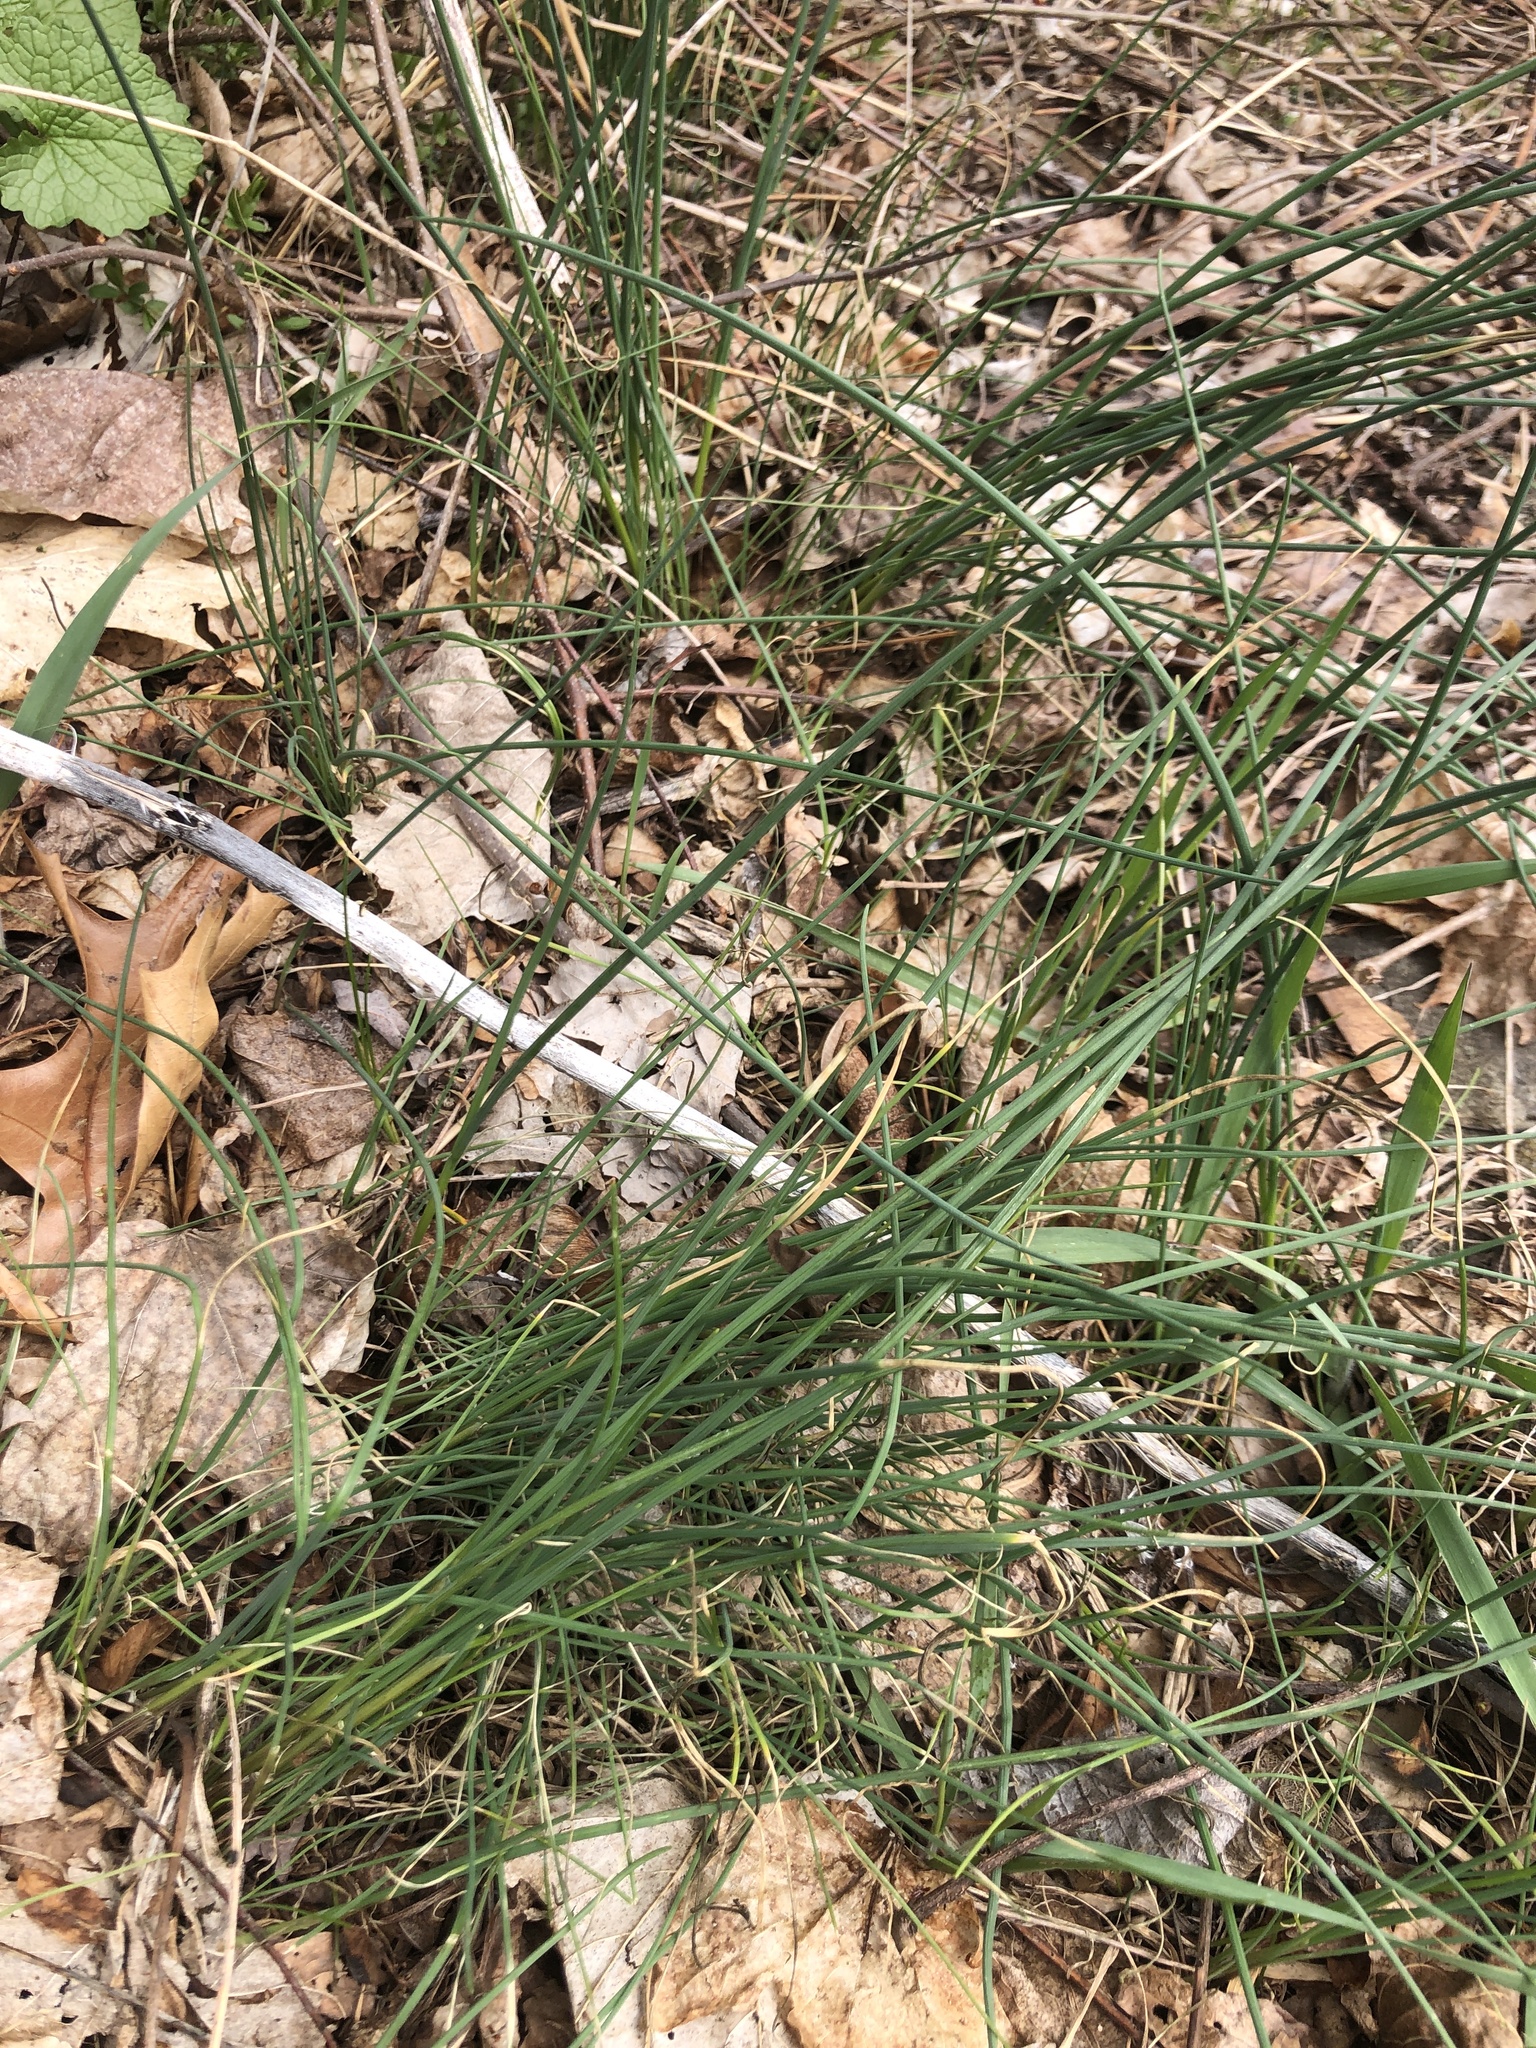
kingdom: Plantae
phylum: Tracheophyta
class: Liliopsida
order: Asparagales
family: Amaryllidaceae
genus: Allium
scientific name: Allium vineale
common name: Crow garlic
